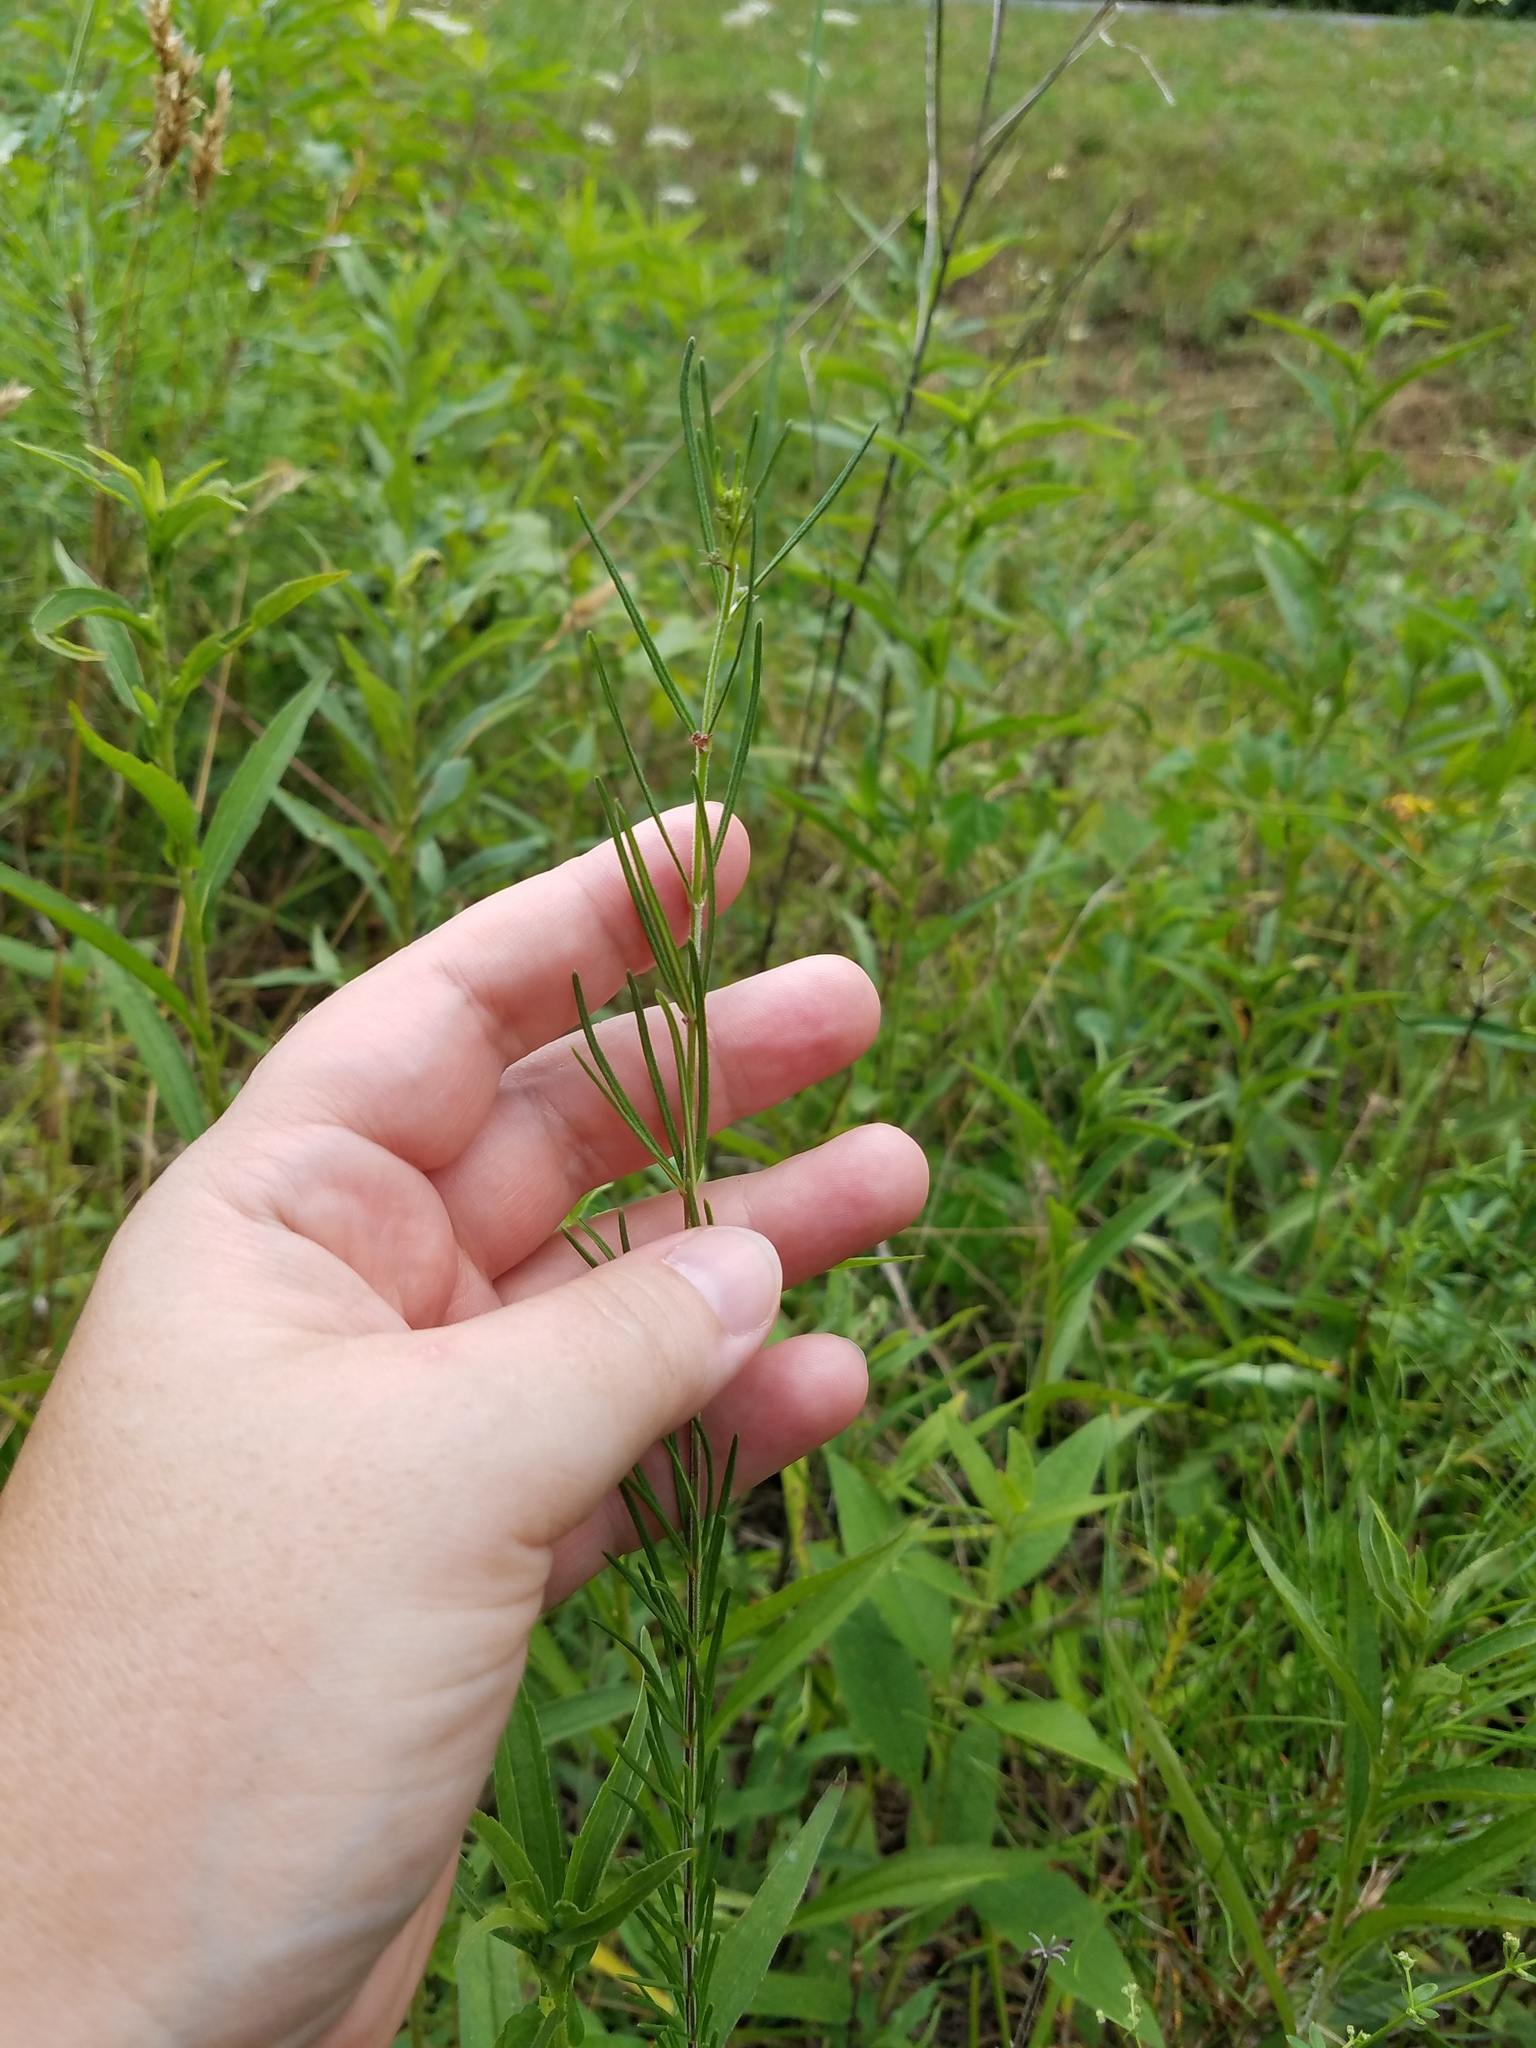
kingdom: Plantae
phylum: Tracheophyta
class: Magnoliopsida
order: Gentianales
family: Apocynaceae
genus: Asclepias
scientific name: Asclepias verticillata
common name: Eastern whorled milkweed
